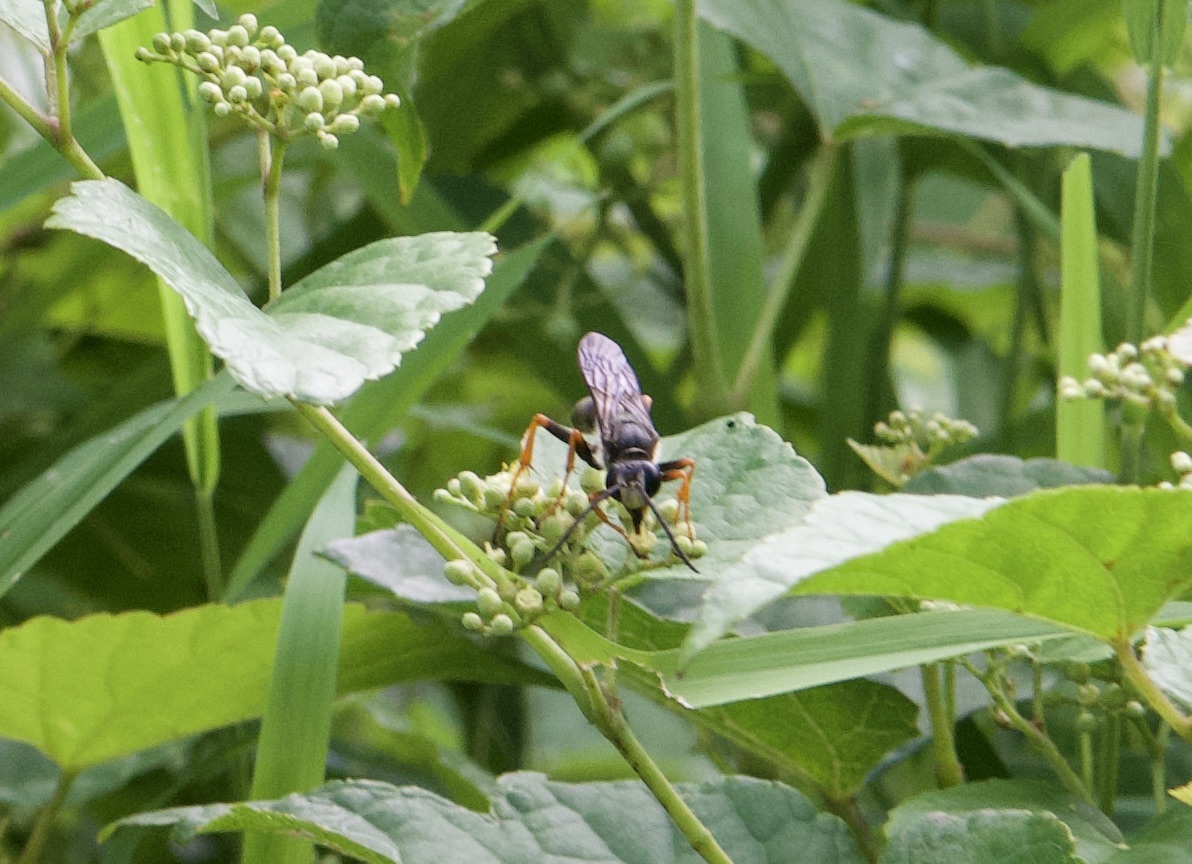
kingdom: Animalia
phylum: Arthropoda
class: Insecta
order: Hymenoptera
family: Sphecidae
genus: Sphex
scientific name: Sphex ichneumoneus
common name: Great golden digger wasp
